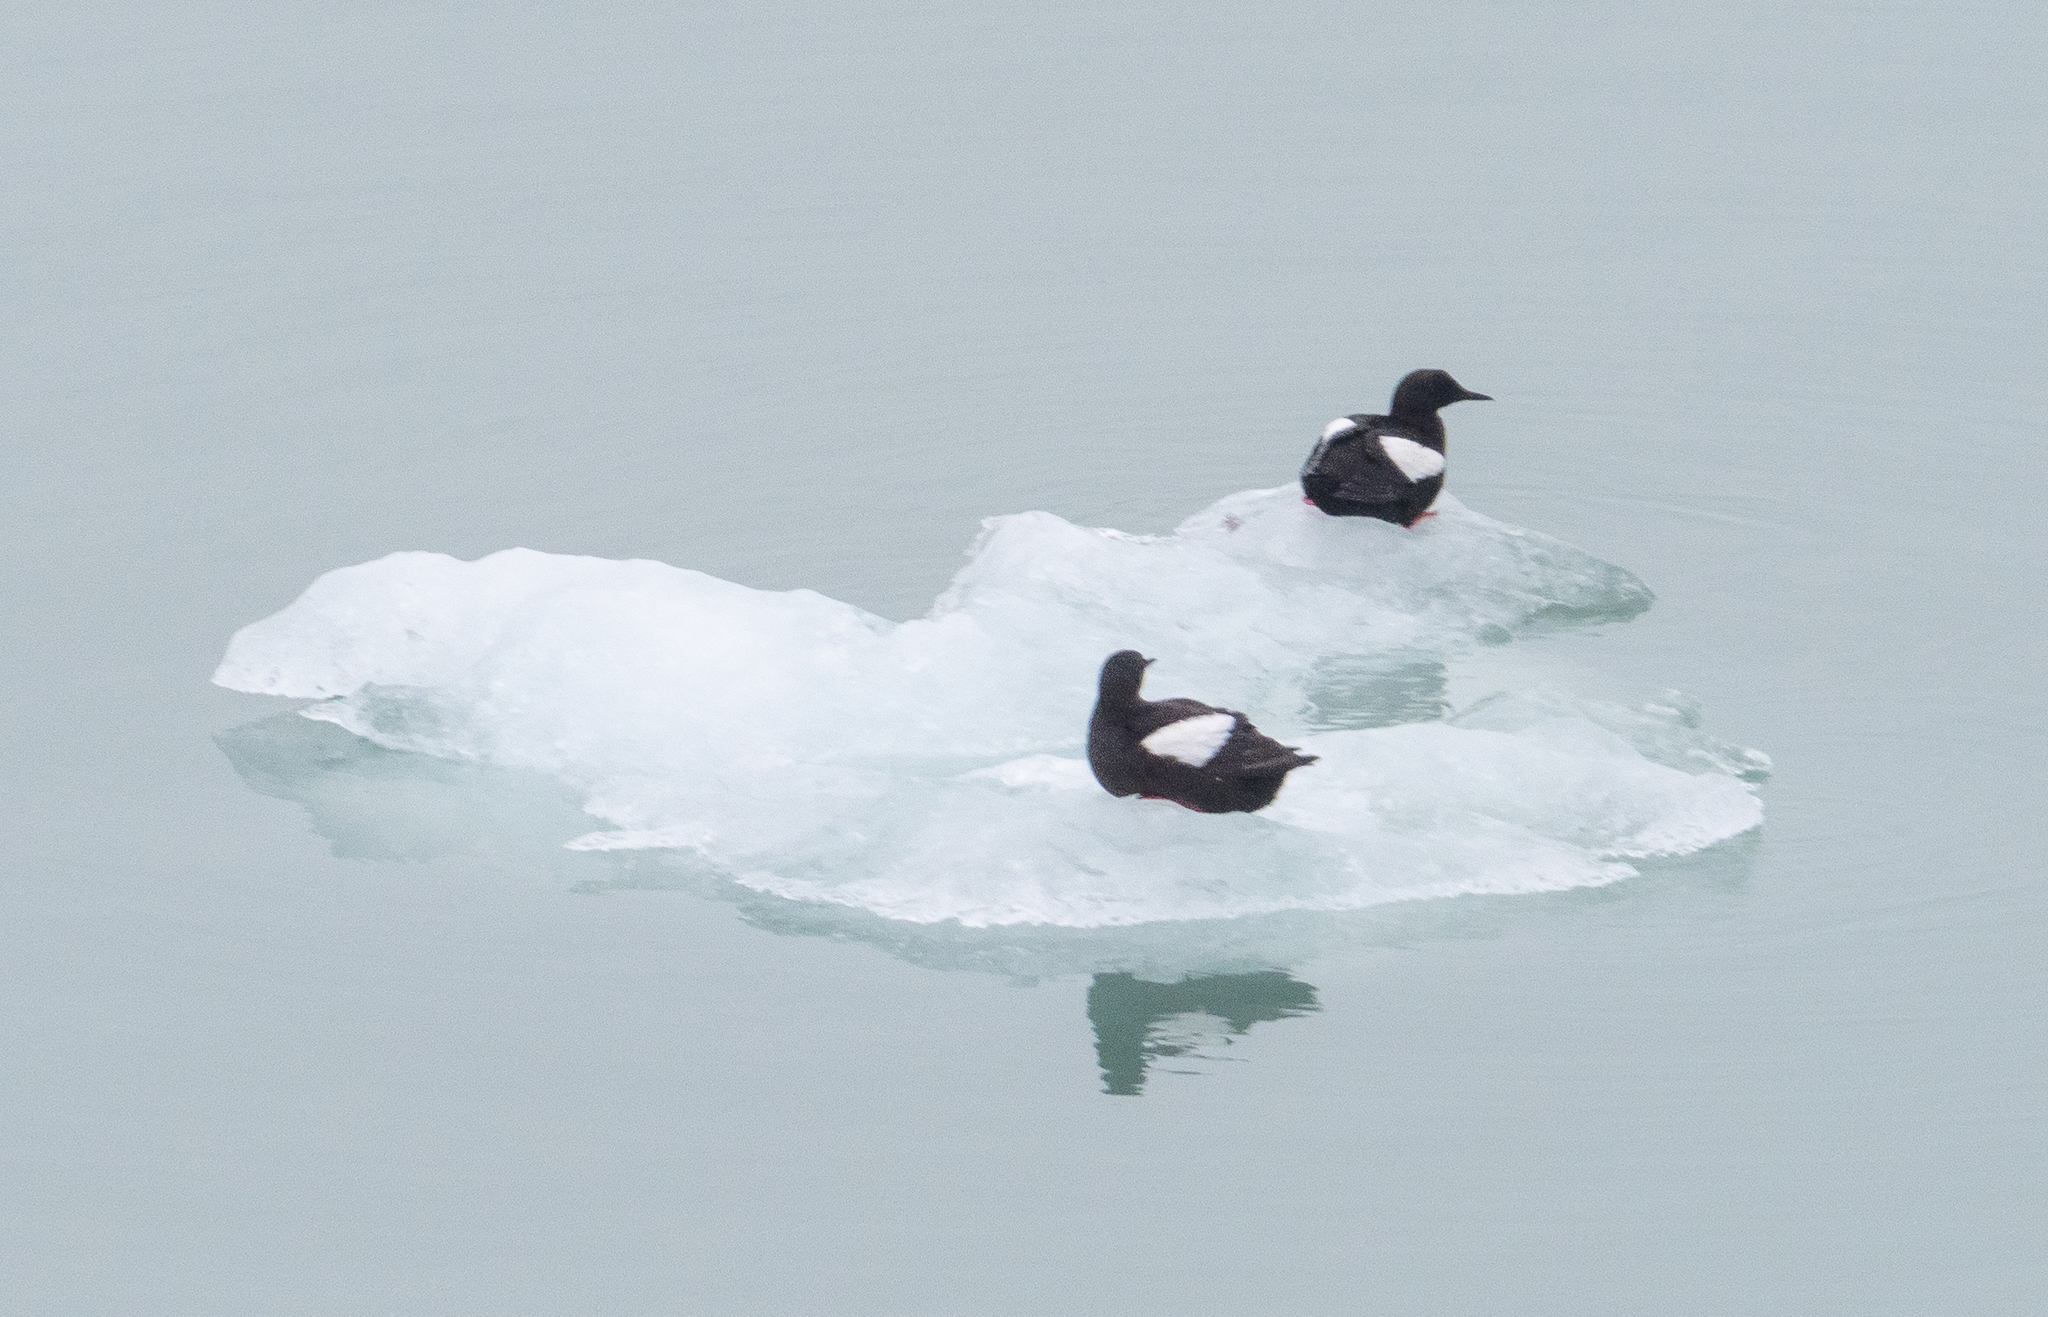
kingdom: Animalia
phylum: Chordata
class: Aves
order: Charadriiformes
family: Alcidae
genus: Cepphus
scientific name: Cepphus grylle
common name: Black guillemot
